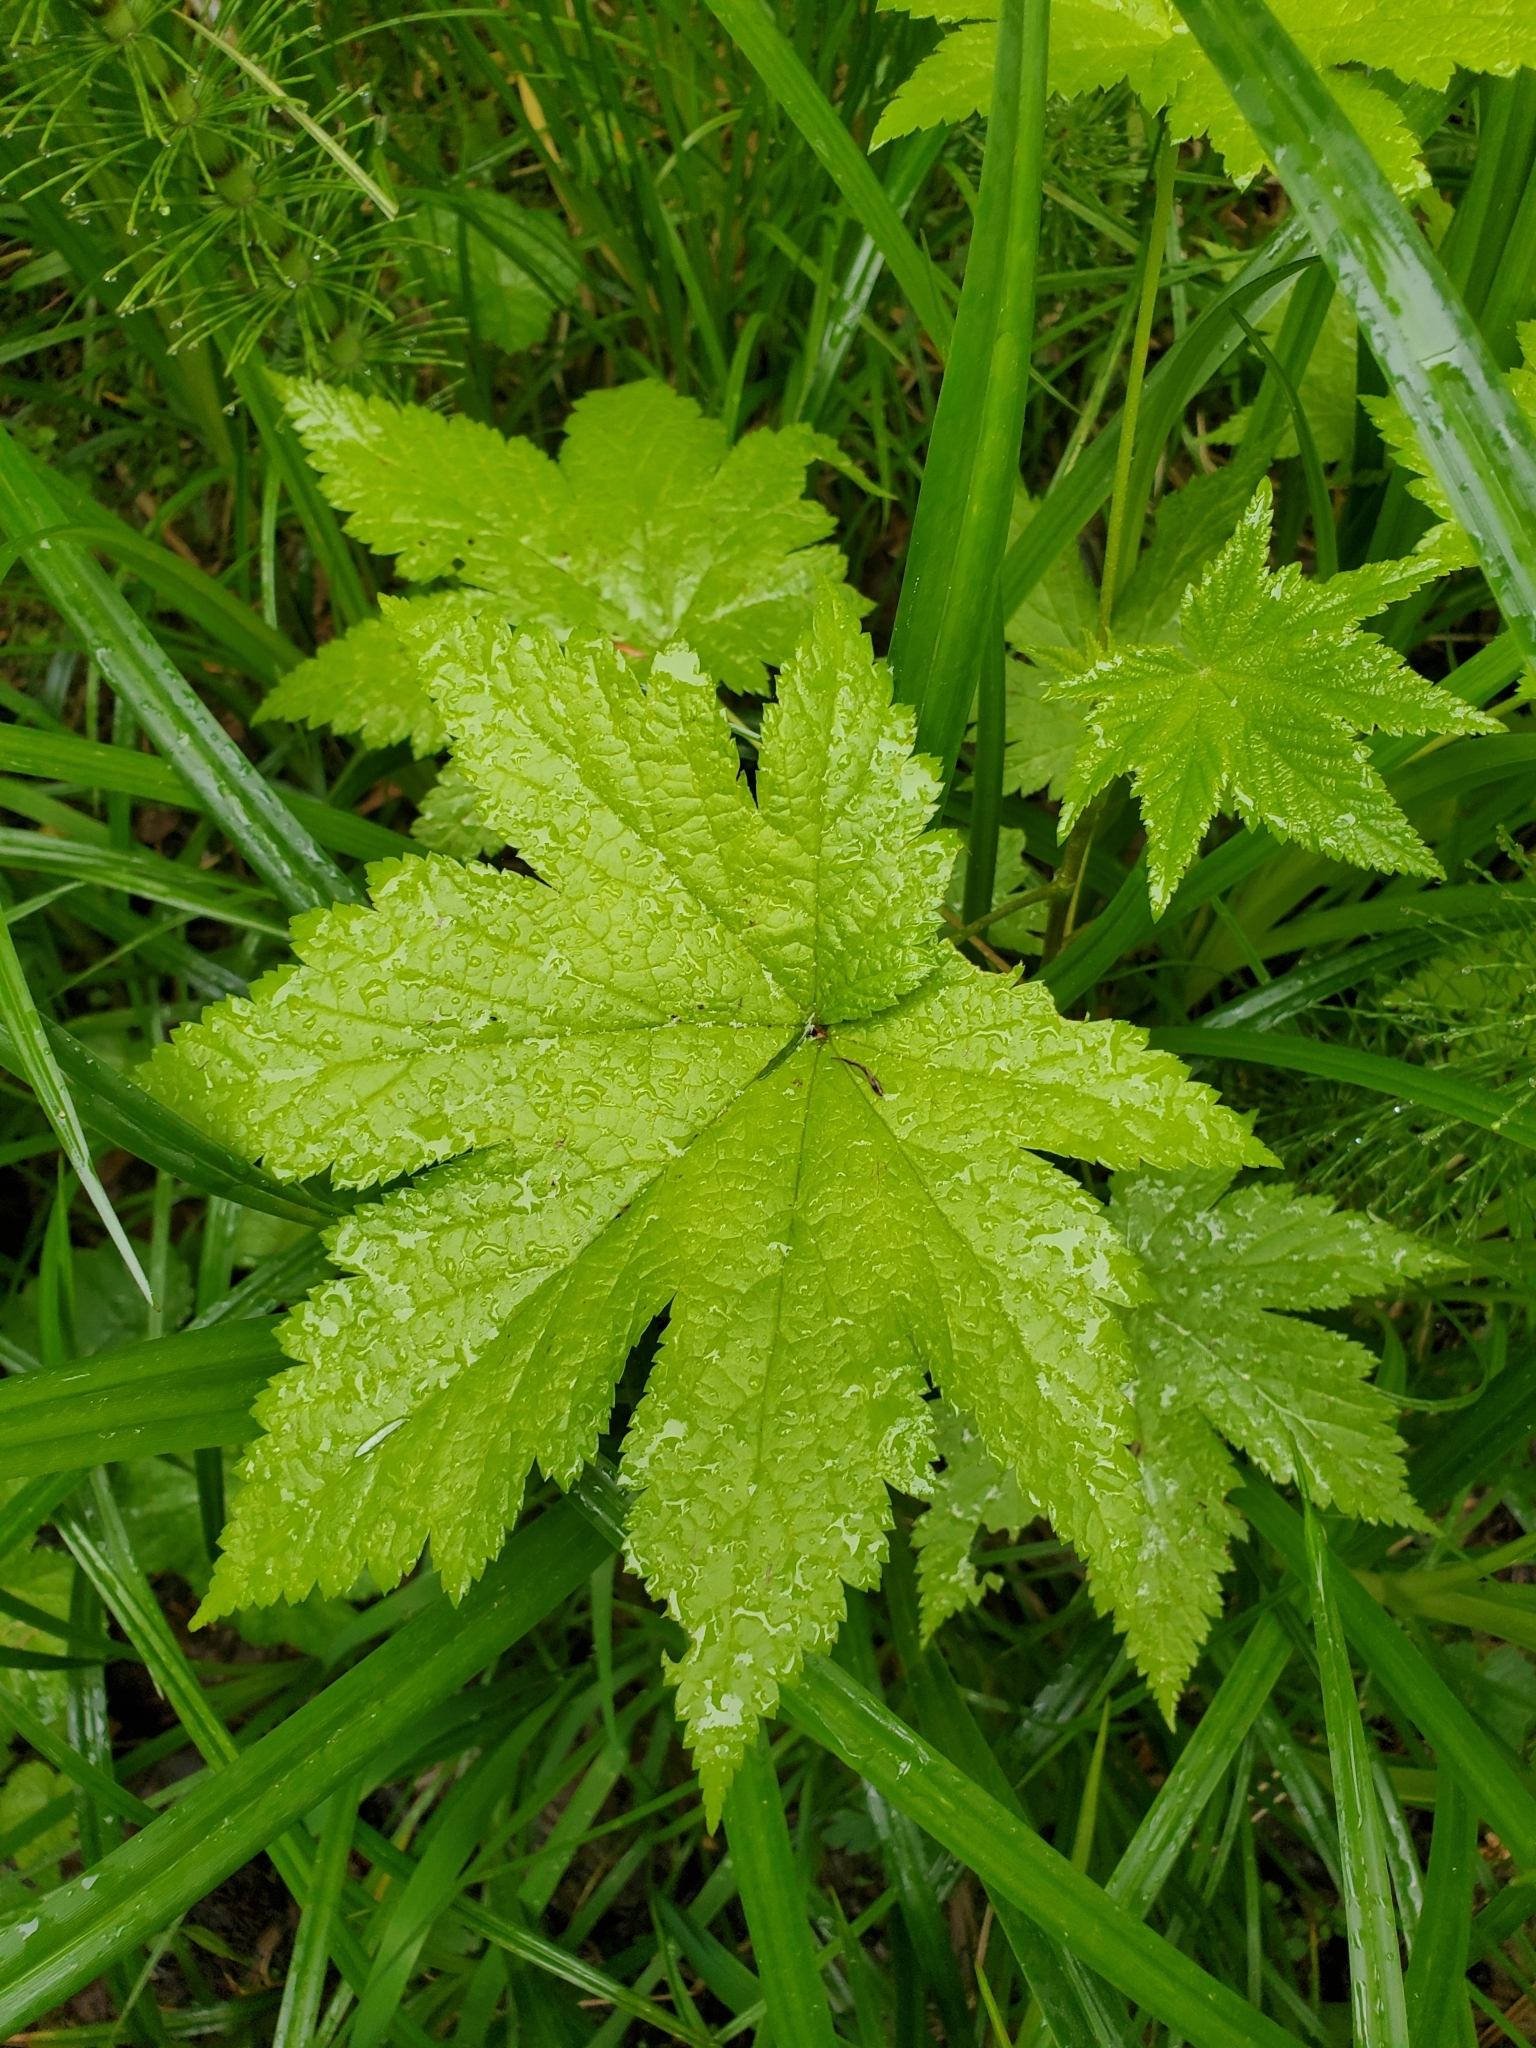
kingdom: Plantae
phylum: Tracheophyta
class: Magnoliopsida
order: Saxifragales
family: Grossulariaceae
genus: Ribes
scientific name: Ribes bracteosum
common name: California black currant
